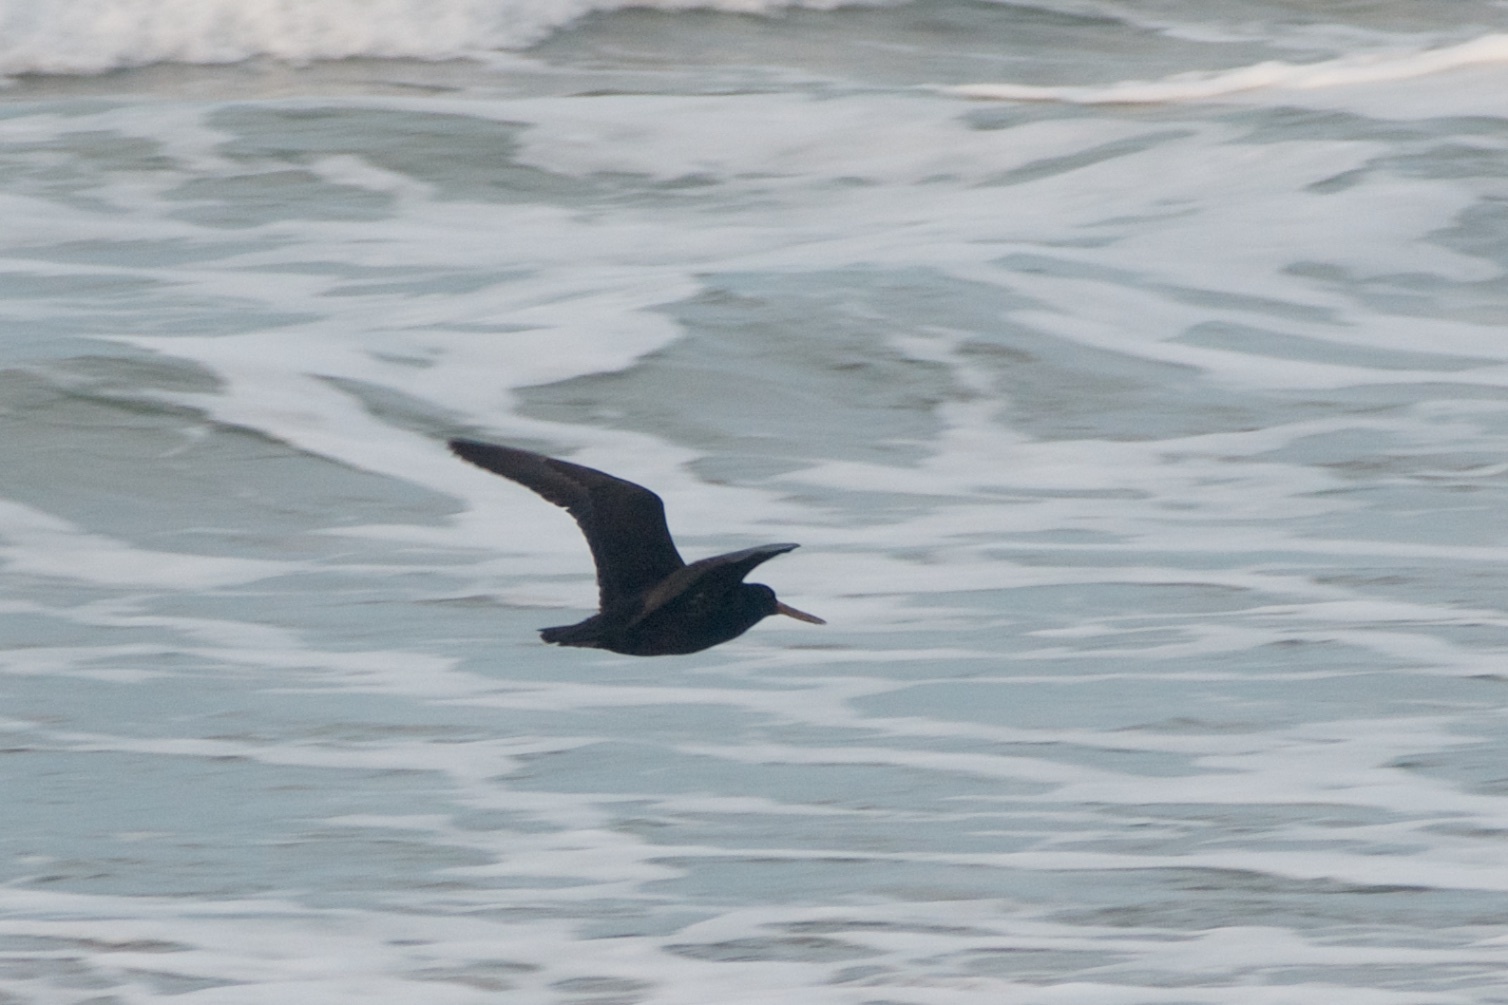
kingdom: Animalia
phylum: Chordata
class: Aves
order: Charadriiformes
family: Haematopodidae
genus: Haematopus
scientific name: Haematopus unicolor
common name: Variable oystercatcher
